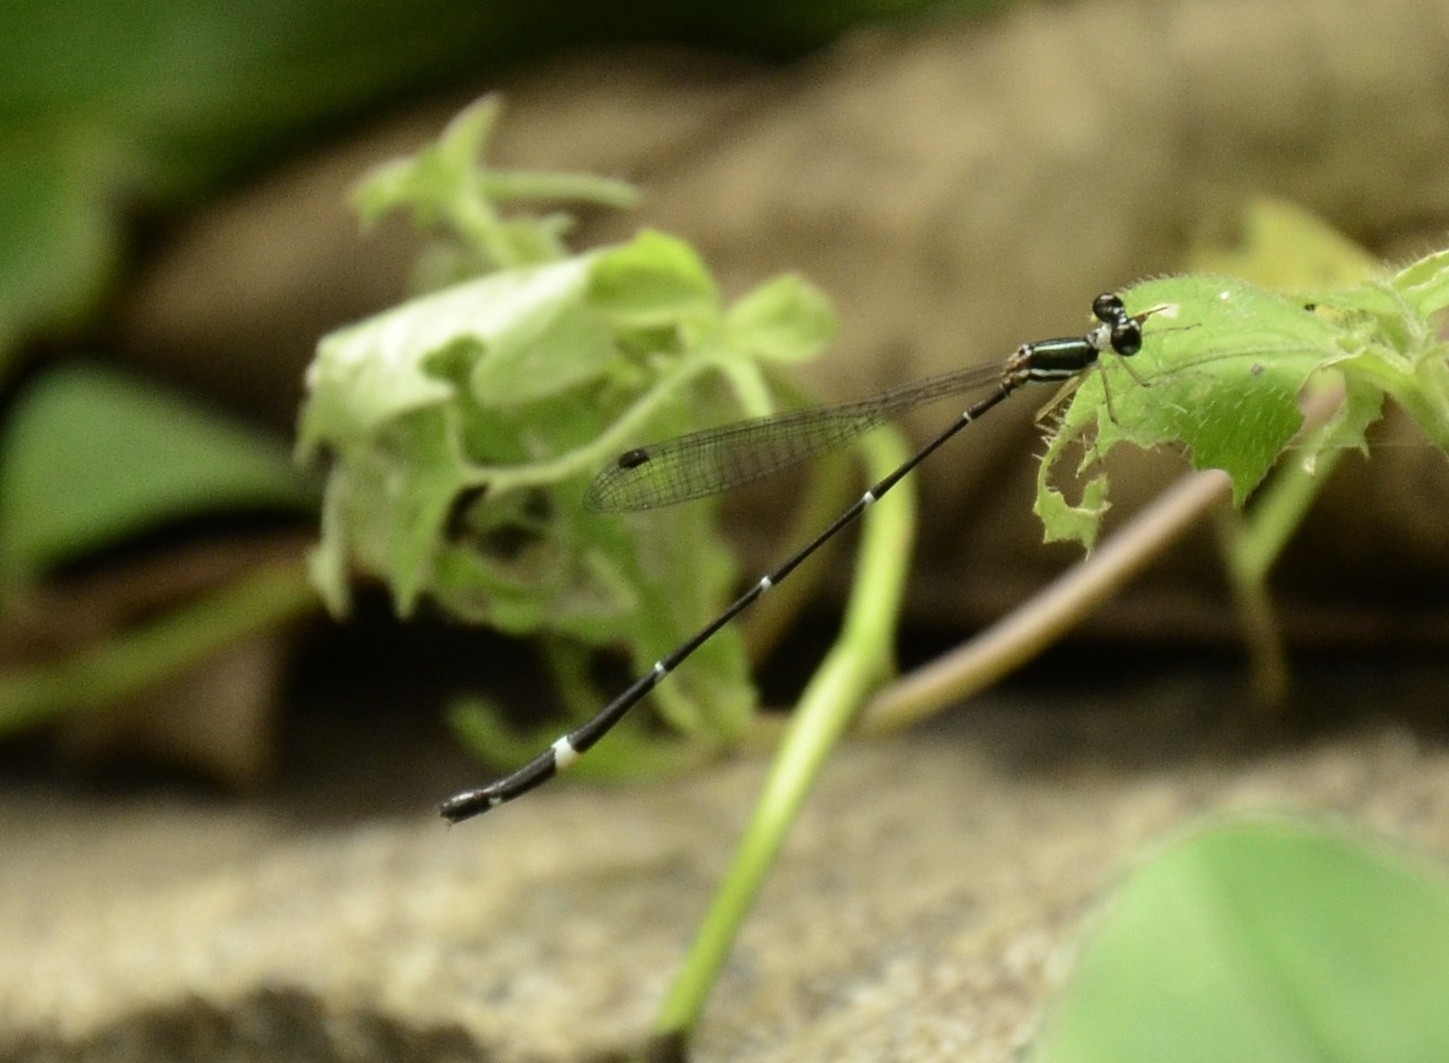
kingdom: Animalia
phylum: Arthropoda
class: Insecta
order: Odonata
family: Platystictidae
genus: Protosticta
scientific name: Protosticta gravelyi
